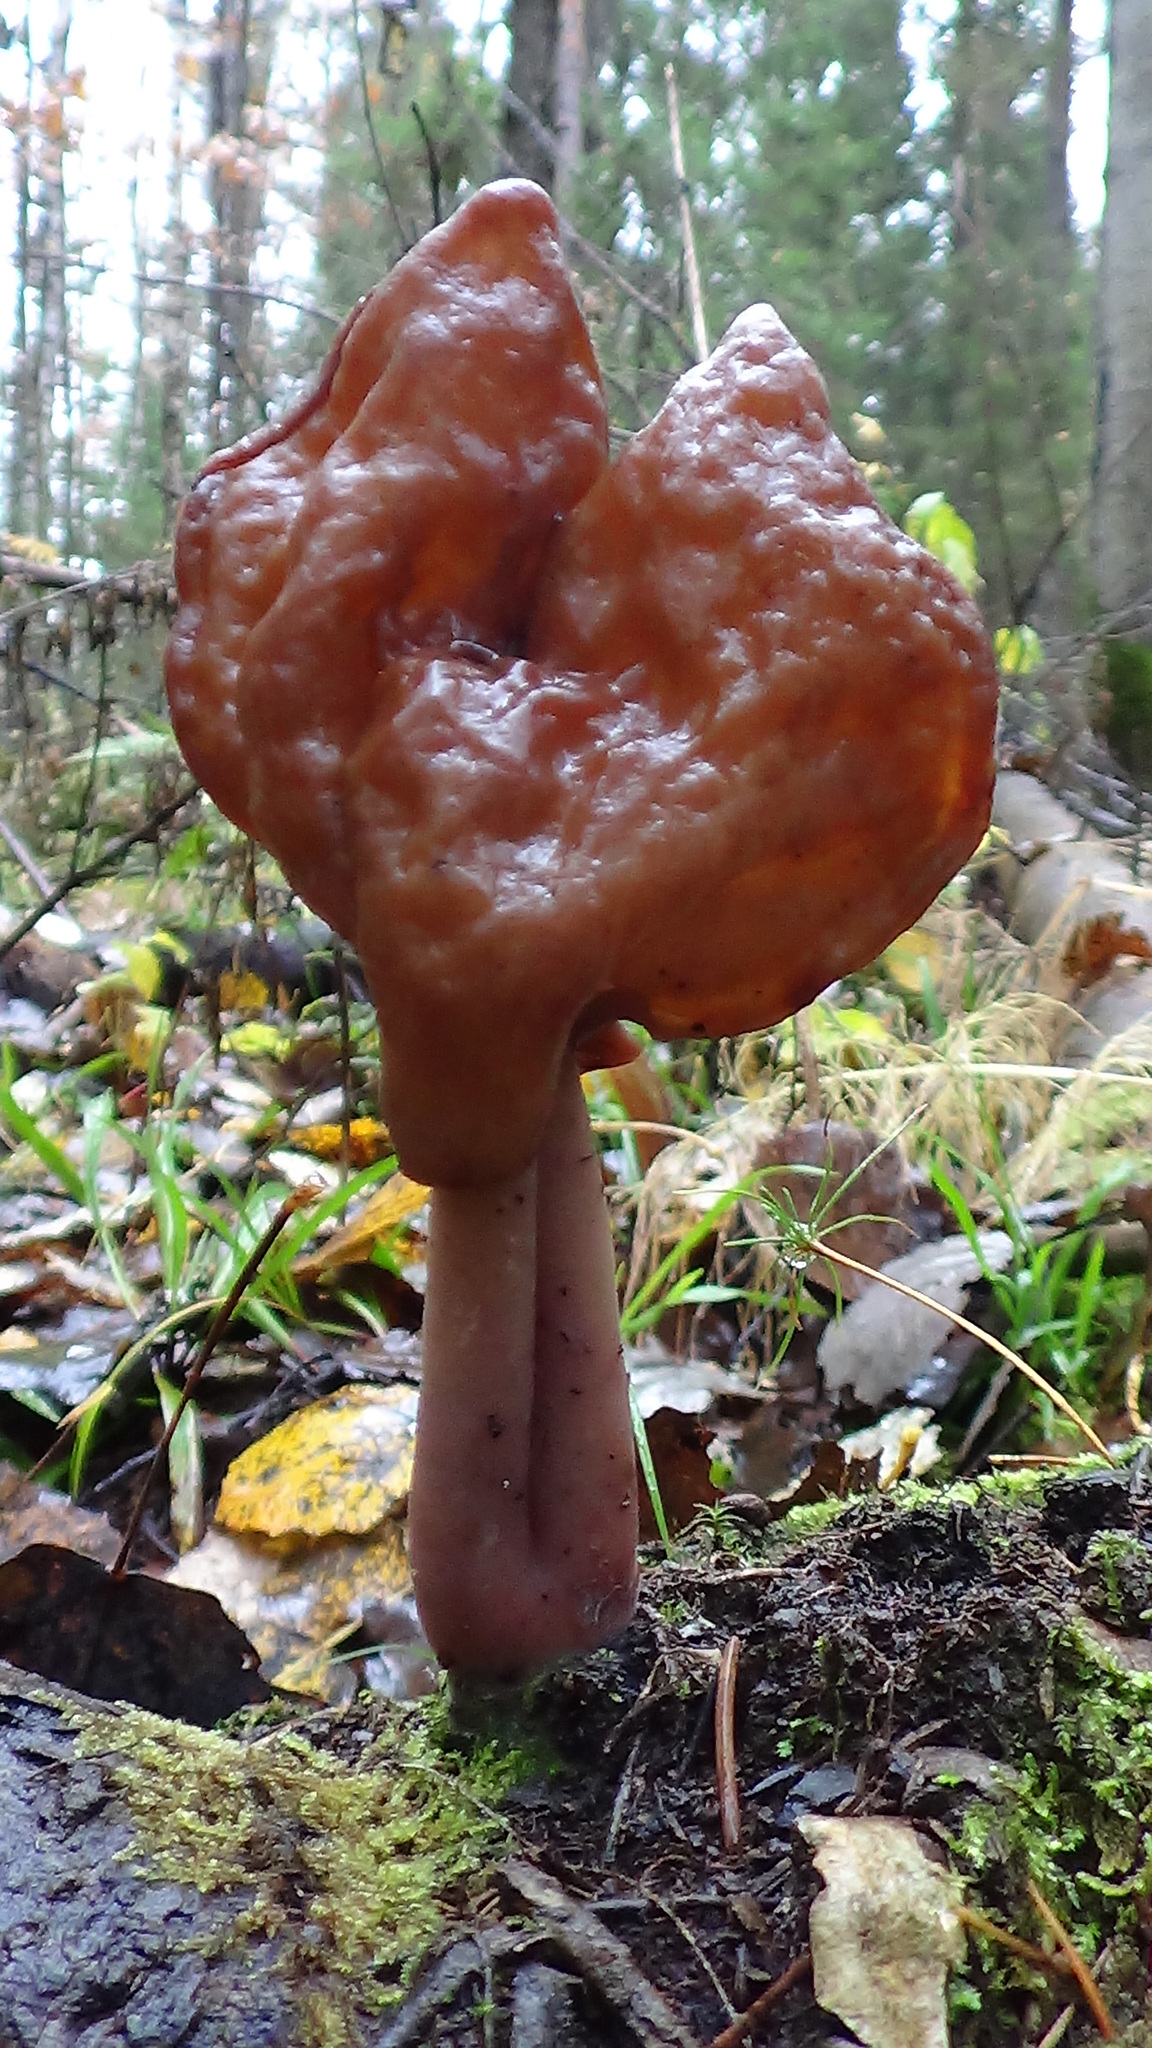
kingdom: Fungi
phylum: Ascomycota
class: Pezizomycetes
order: Pezizales
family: Discinaceae
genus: Gyromitra
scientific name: Gyromitra infula
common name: Pouched false morel
